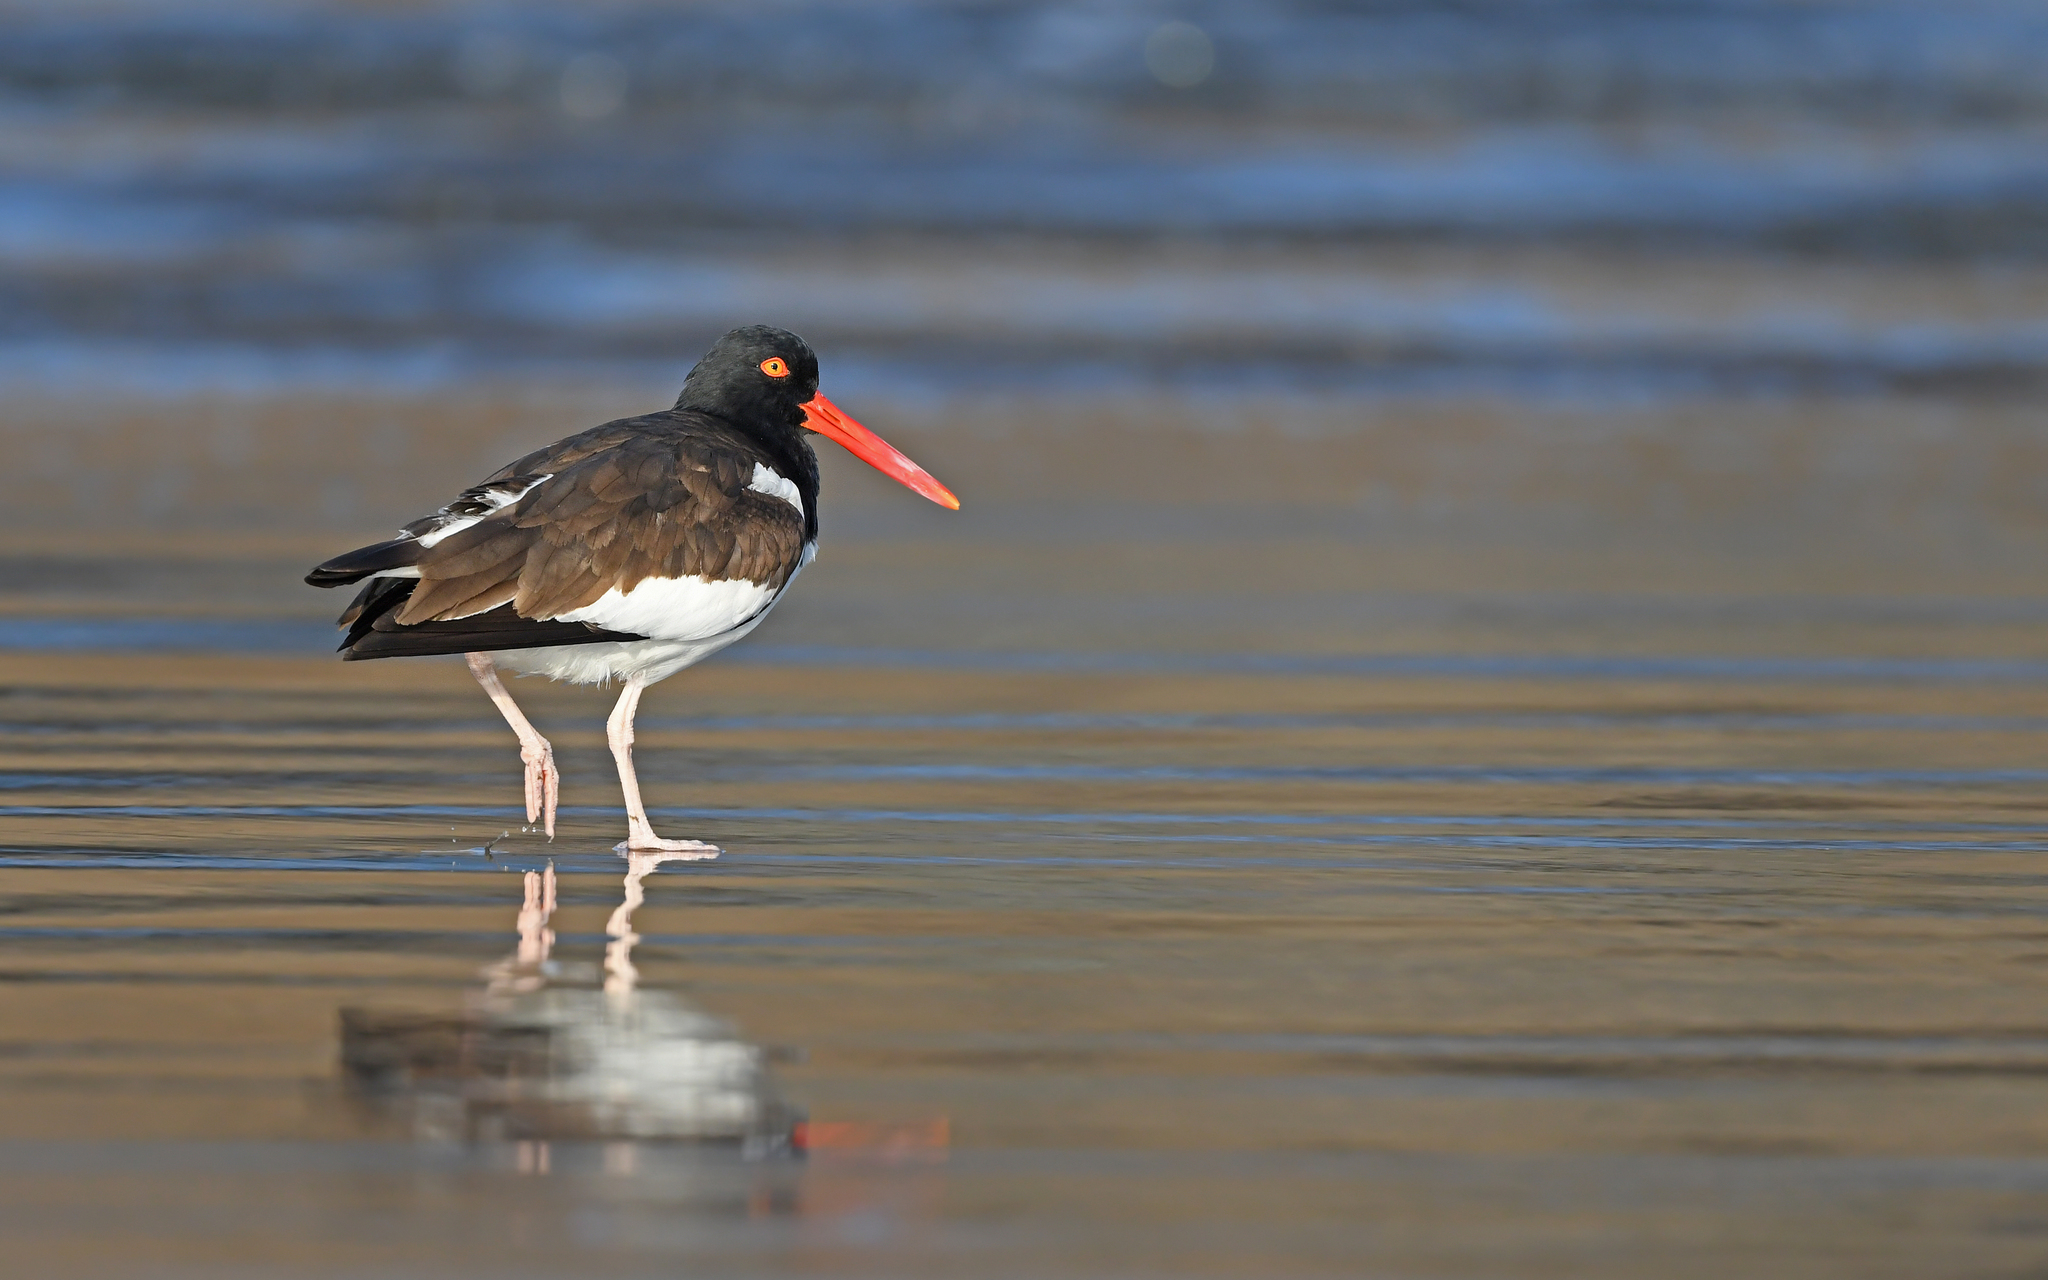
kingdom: Animalia
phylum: Chordata
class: Aves
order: Charadriiformes
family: Haematopodidae
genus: Haematopus
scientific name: Haematopus palliatus
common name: American oystercatcher
